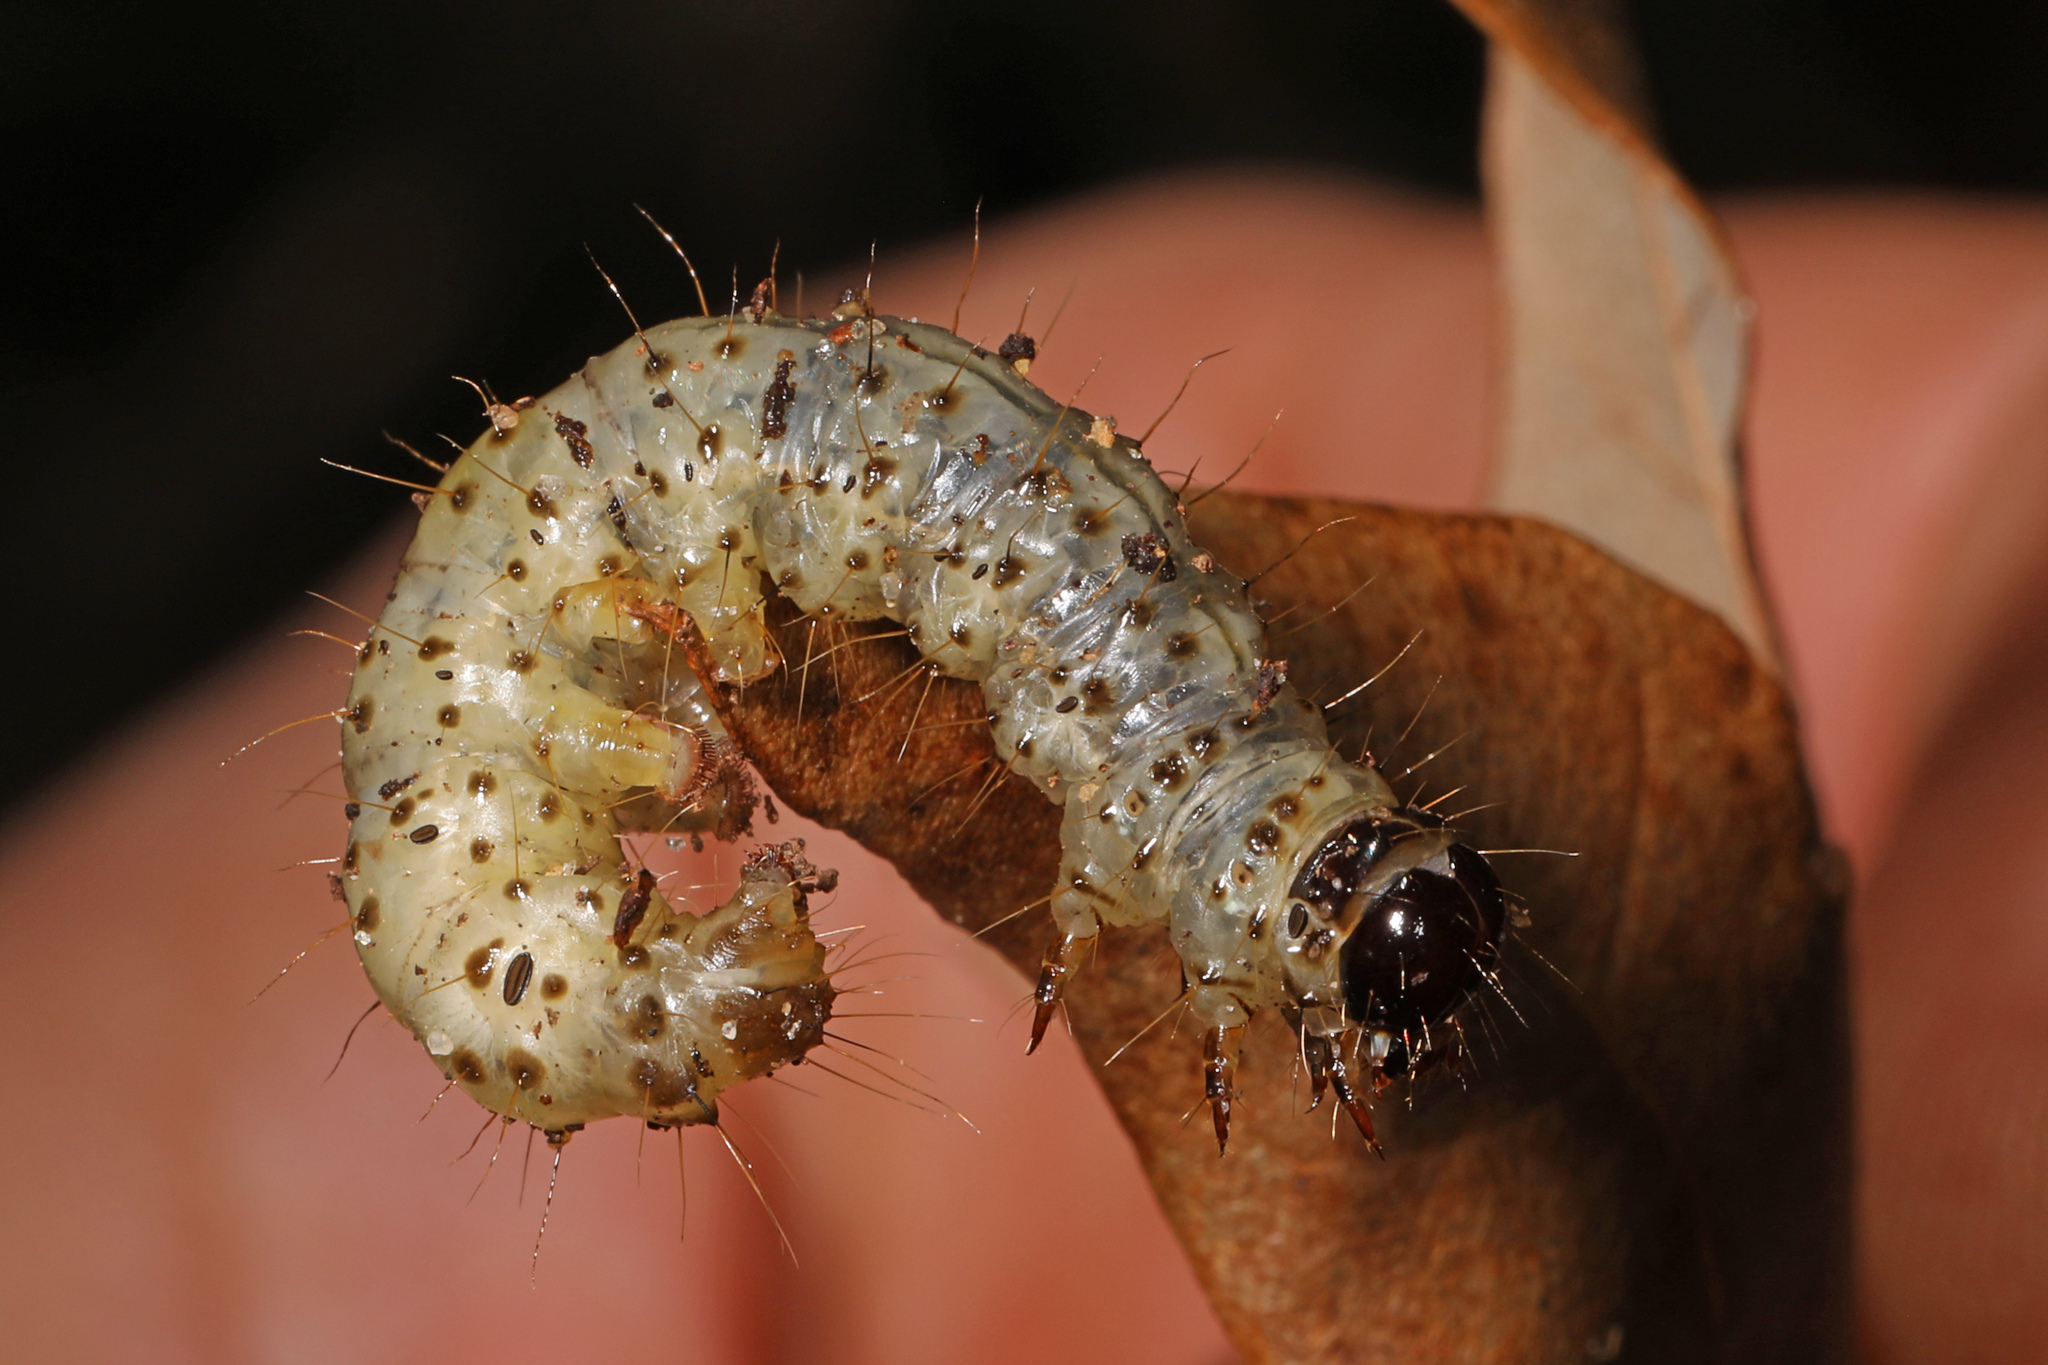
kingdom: Animalia
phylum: Arthropoda
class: Insecta
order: Lepidoptera
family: Erebidae
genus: Scolecocampa
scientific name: Scolecocampa liburna
